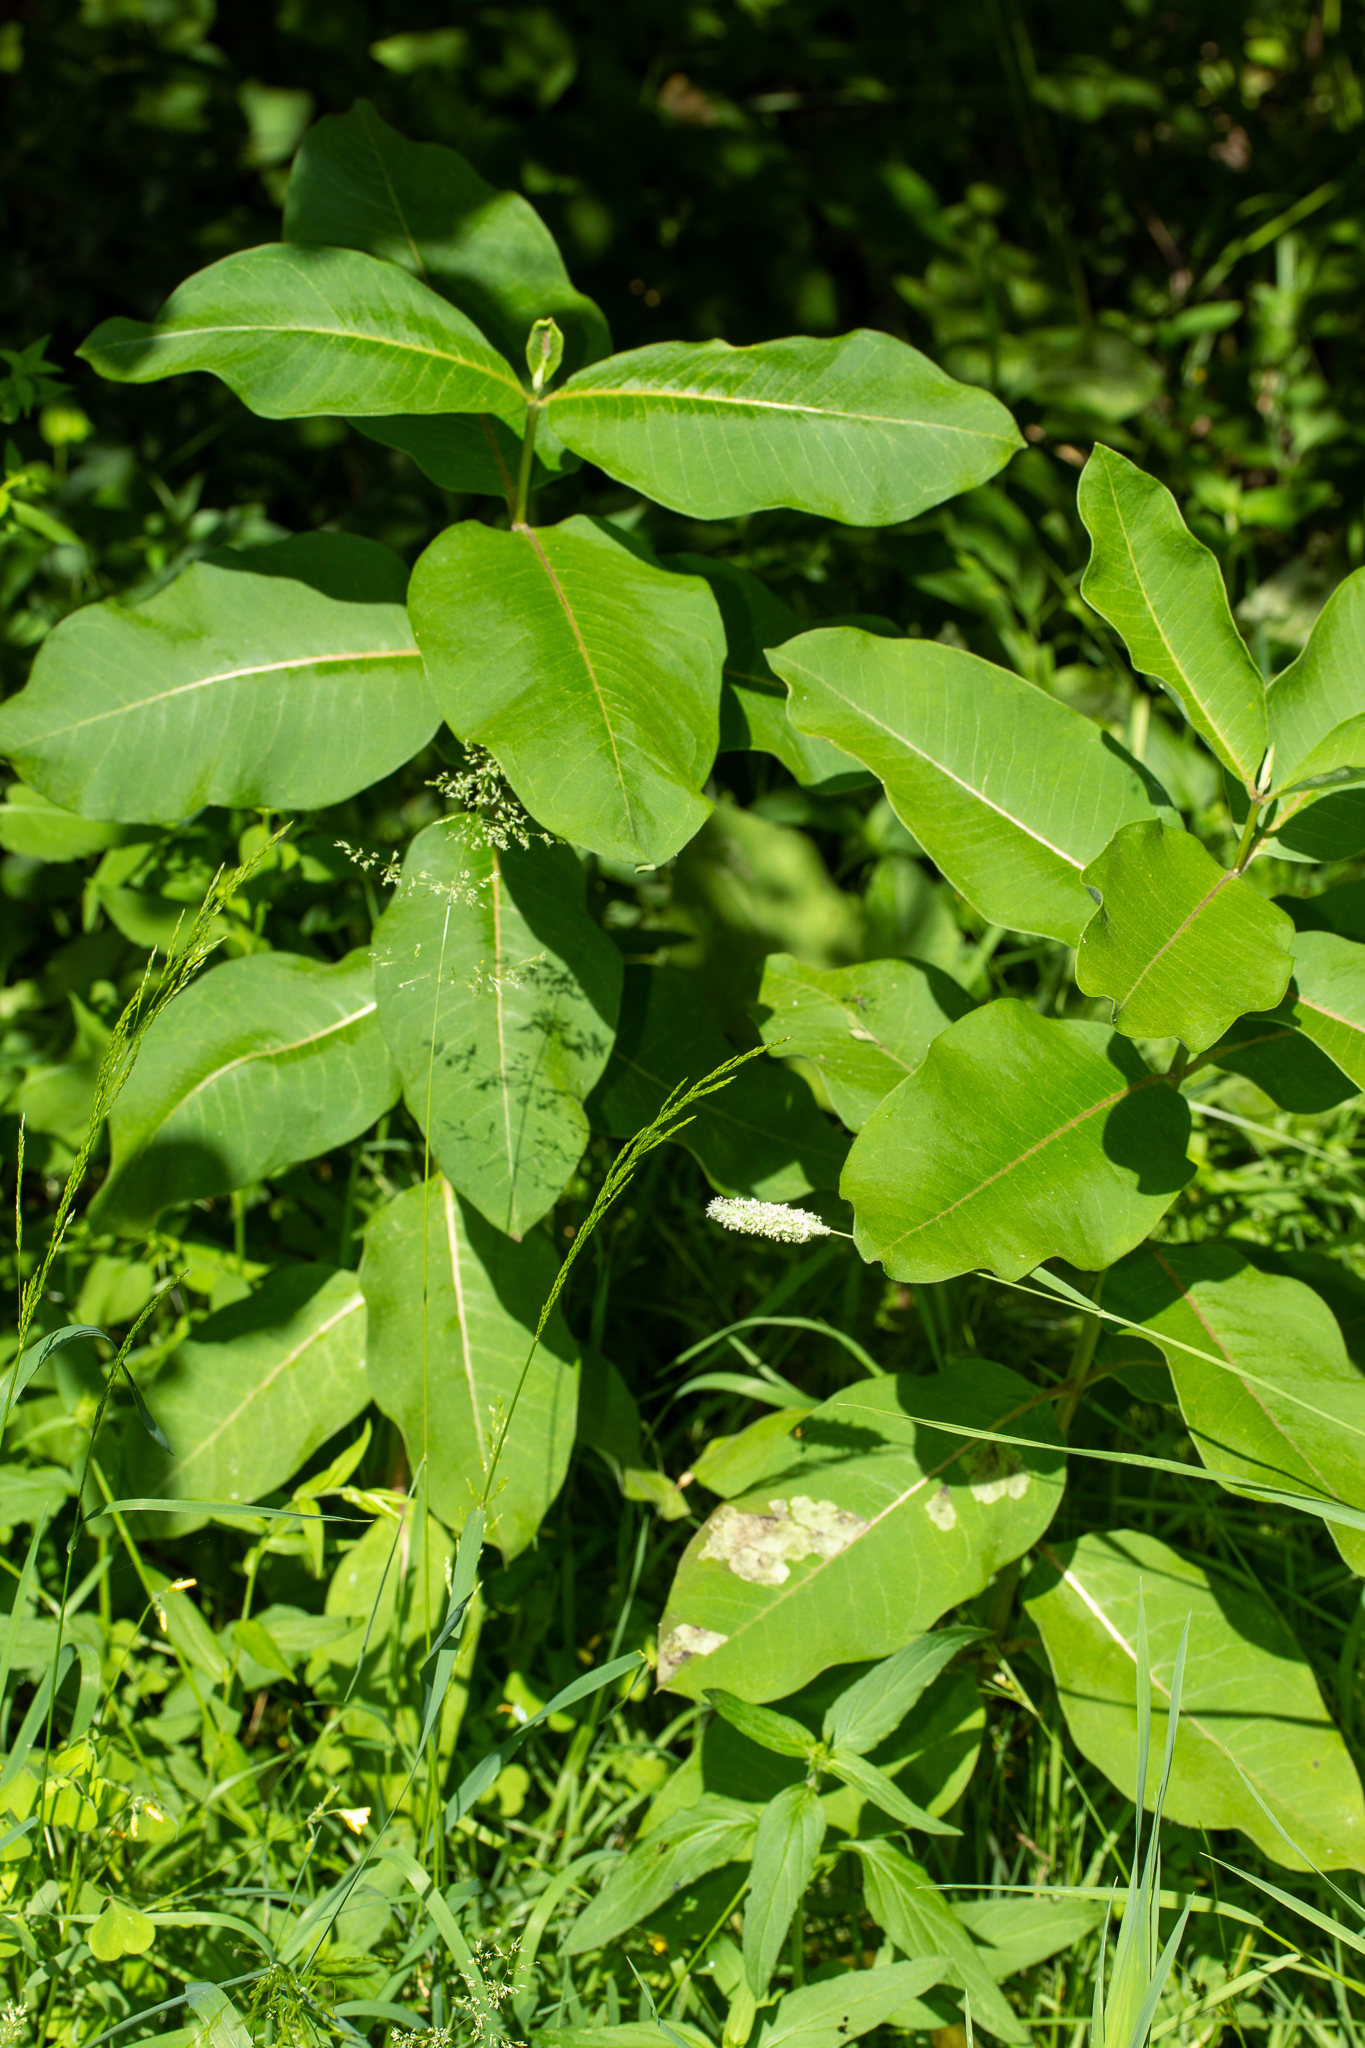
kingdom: Plantae
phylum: Tracheophyta
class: Magnoliopsida
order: Gentianales
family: Apocynaceae
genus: Asclepias
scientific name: Asclepias syriaca
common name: Common milkweed
